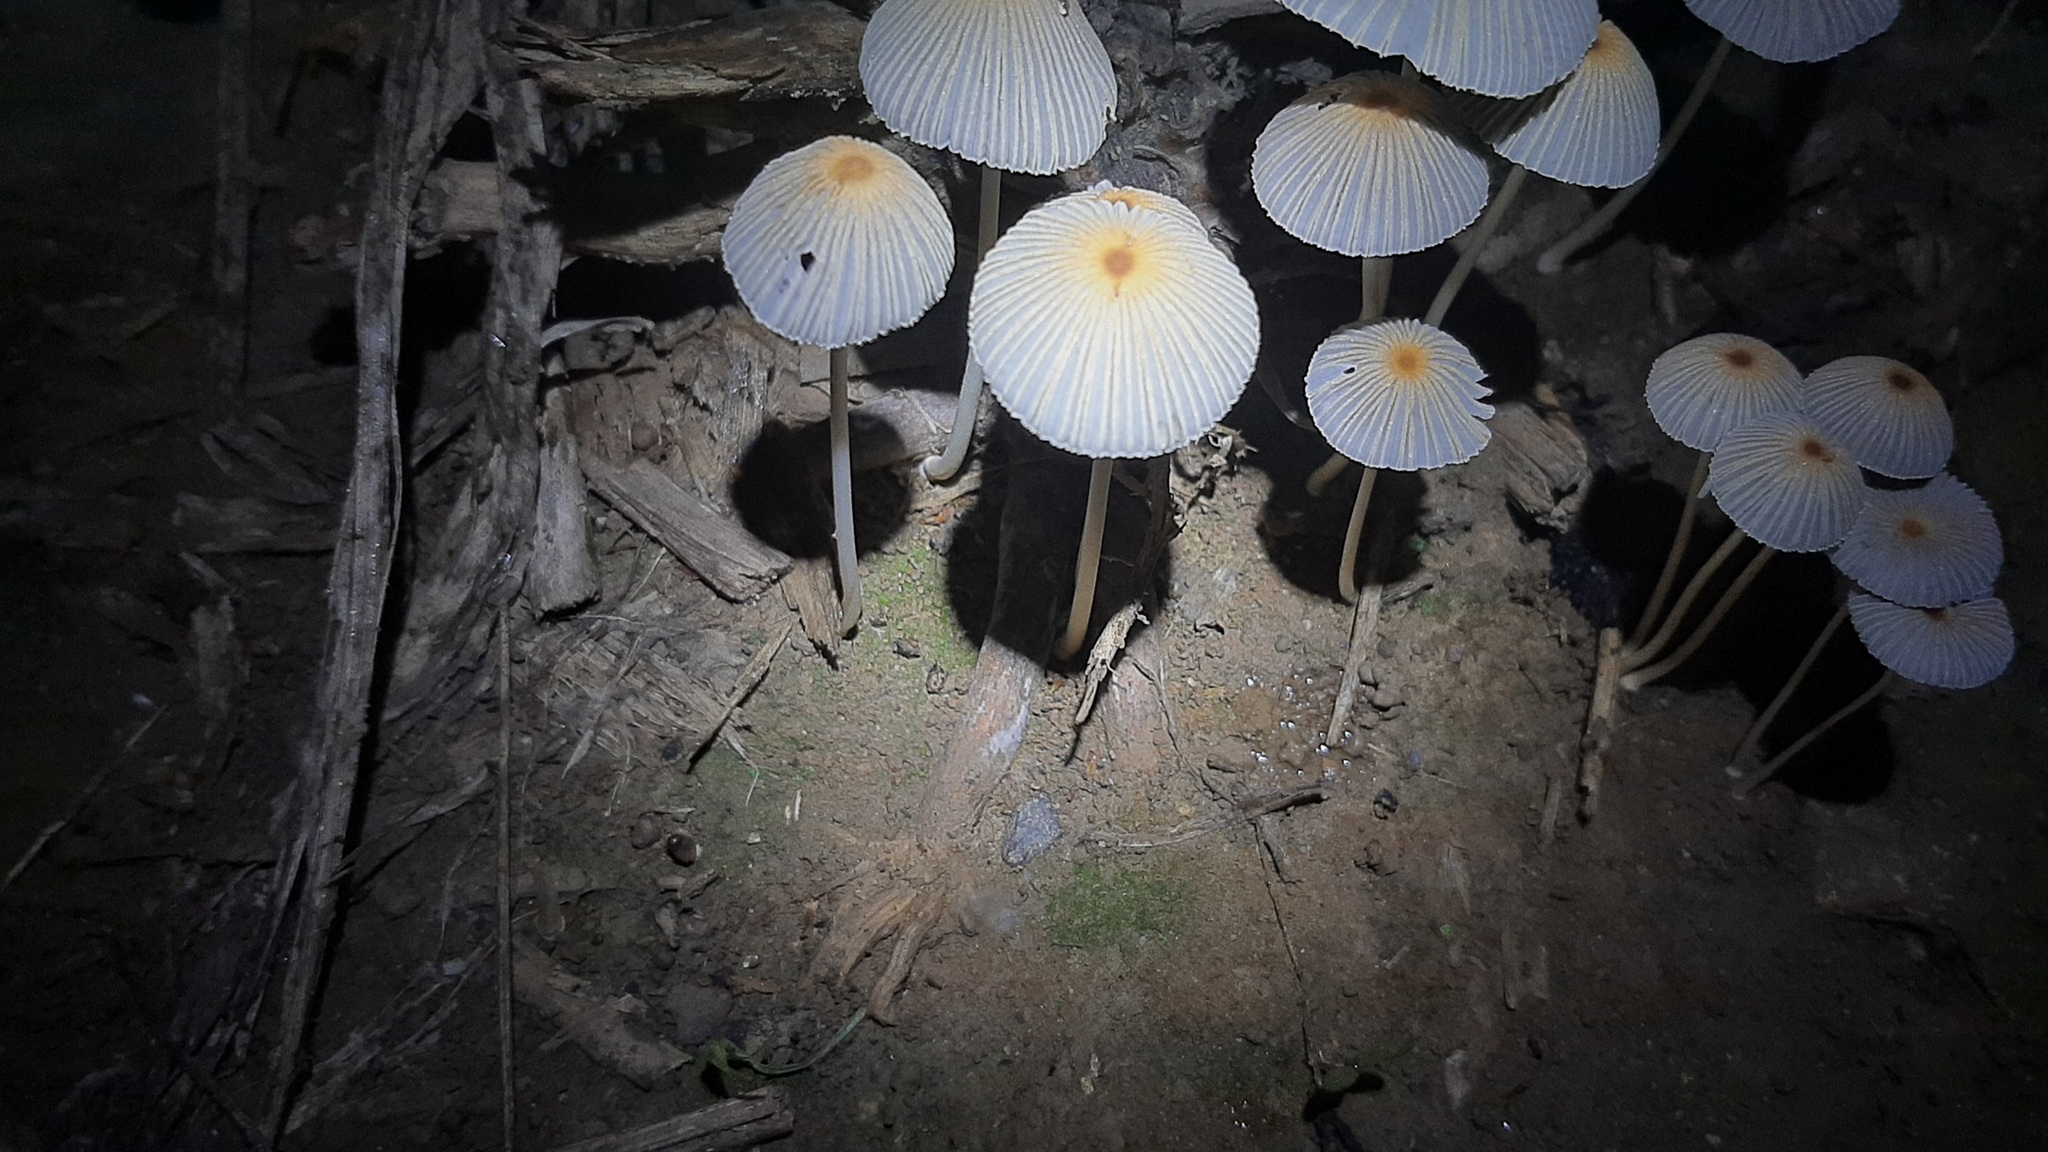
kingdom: Fungi
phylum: Basidiomycota
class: Agaricomycetes
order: Agaricales
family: Psathyrellaceae
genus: Parasola
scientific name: Parasola plicatilis
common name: Pleated inkcap
